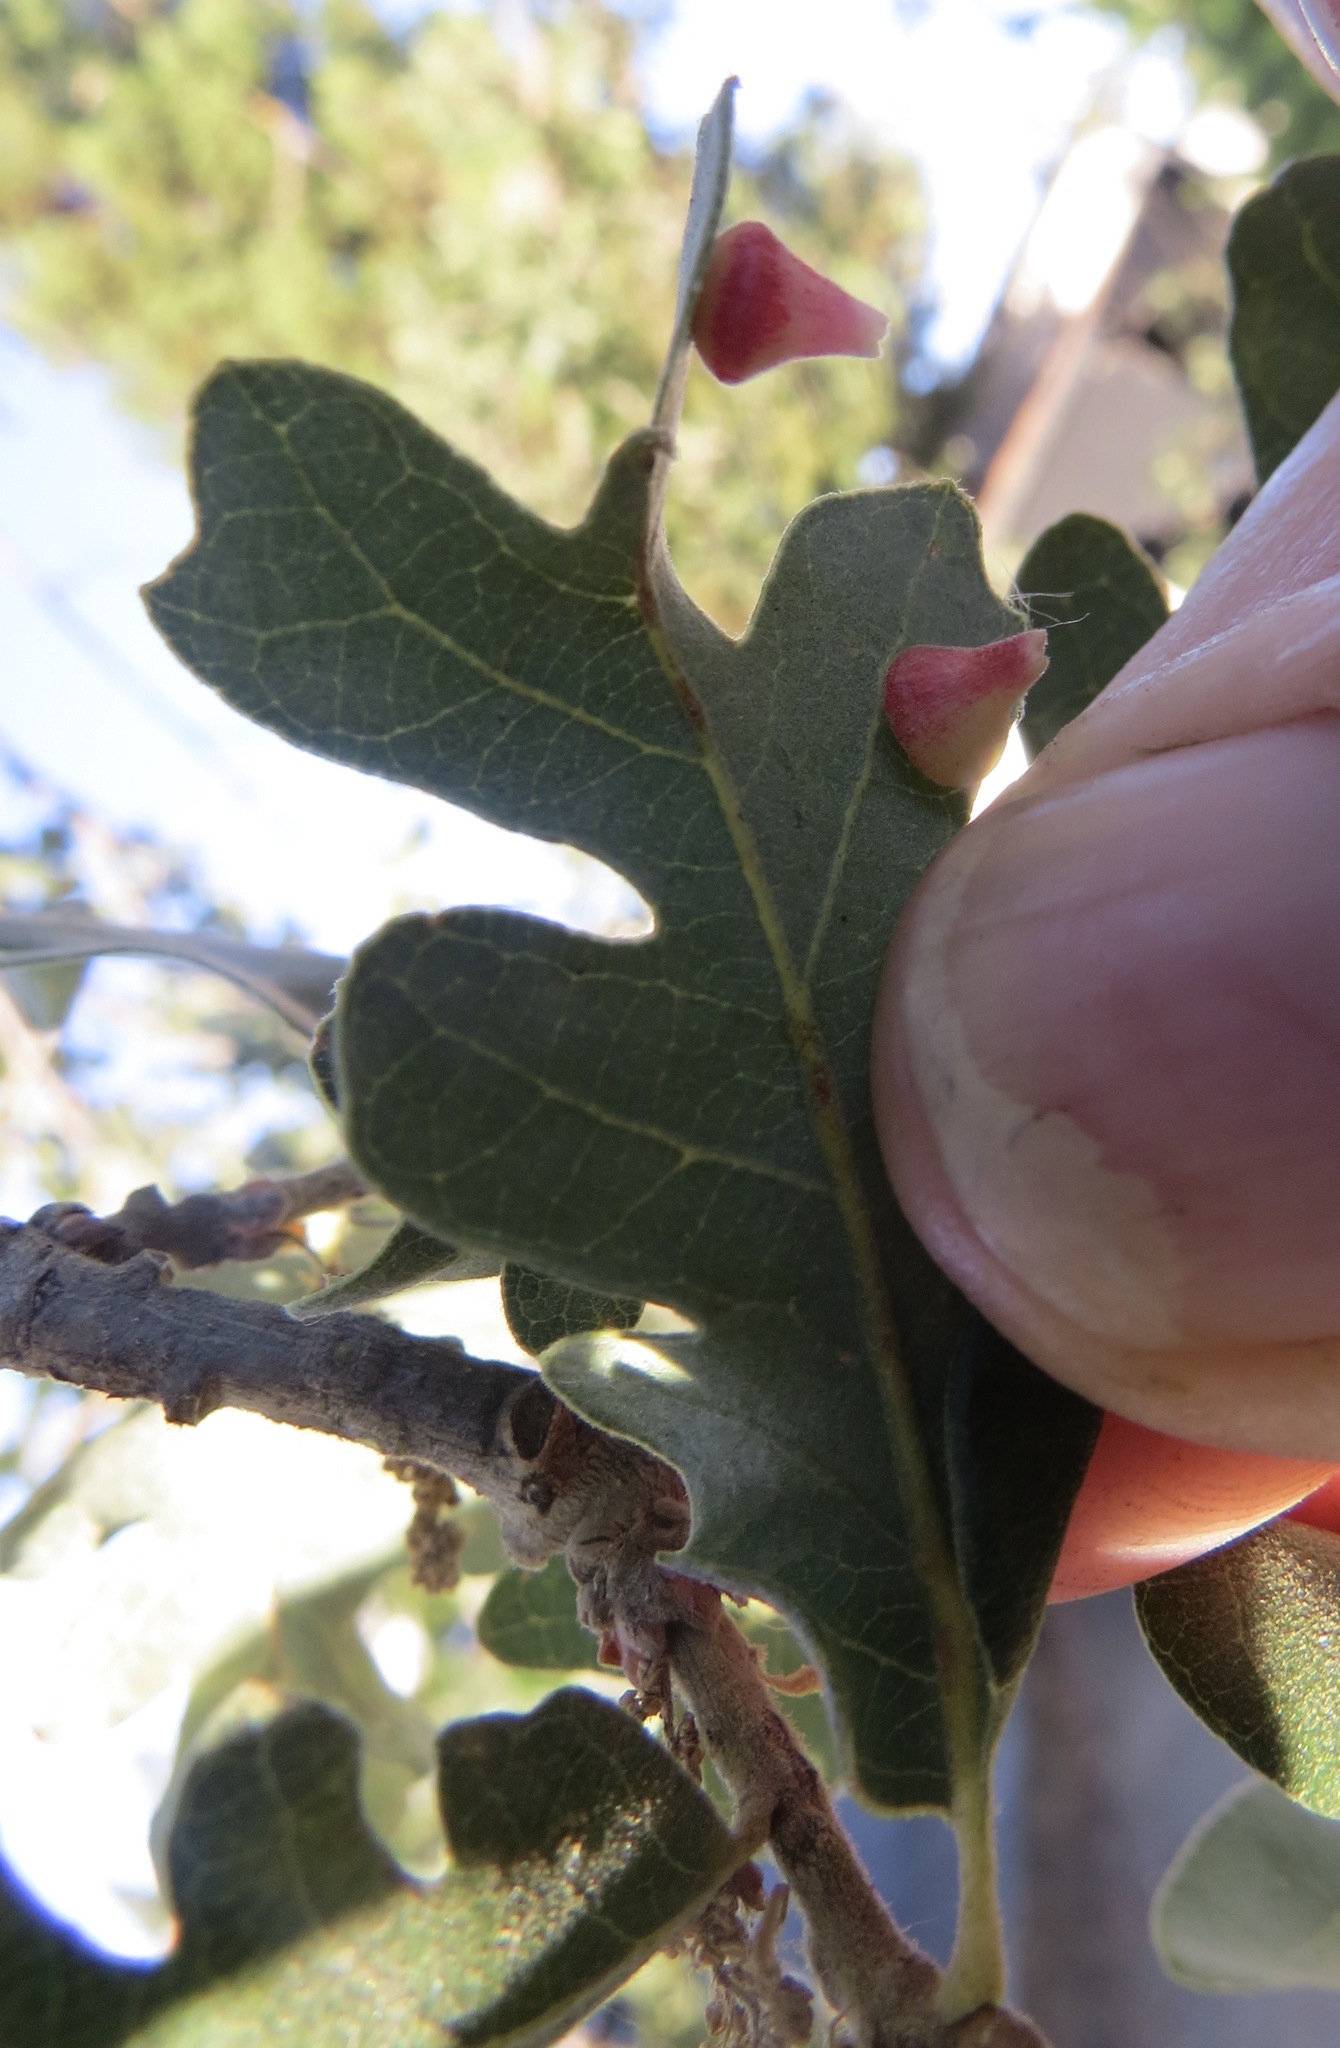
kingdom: Animalia
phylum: Arthropoda
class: Insecta
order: Hymenoptera
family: Cynipidae
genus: Andricus
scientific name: Andricus
